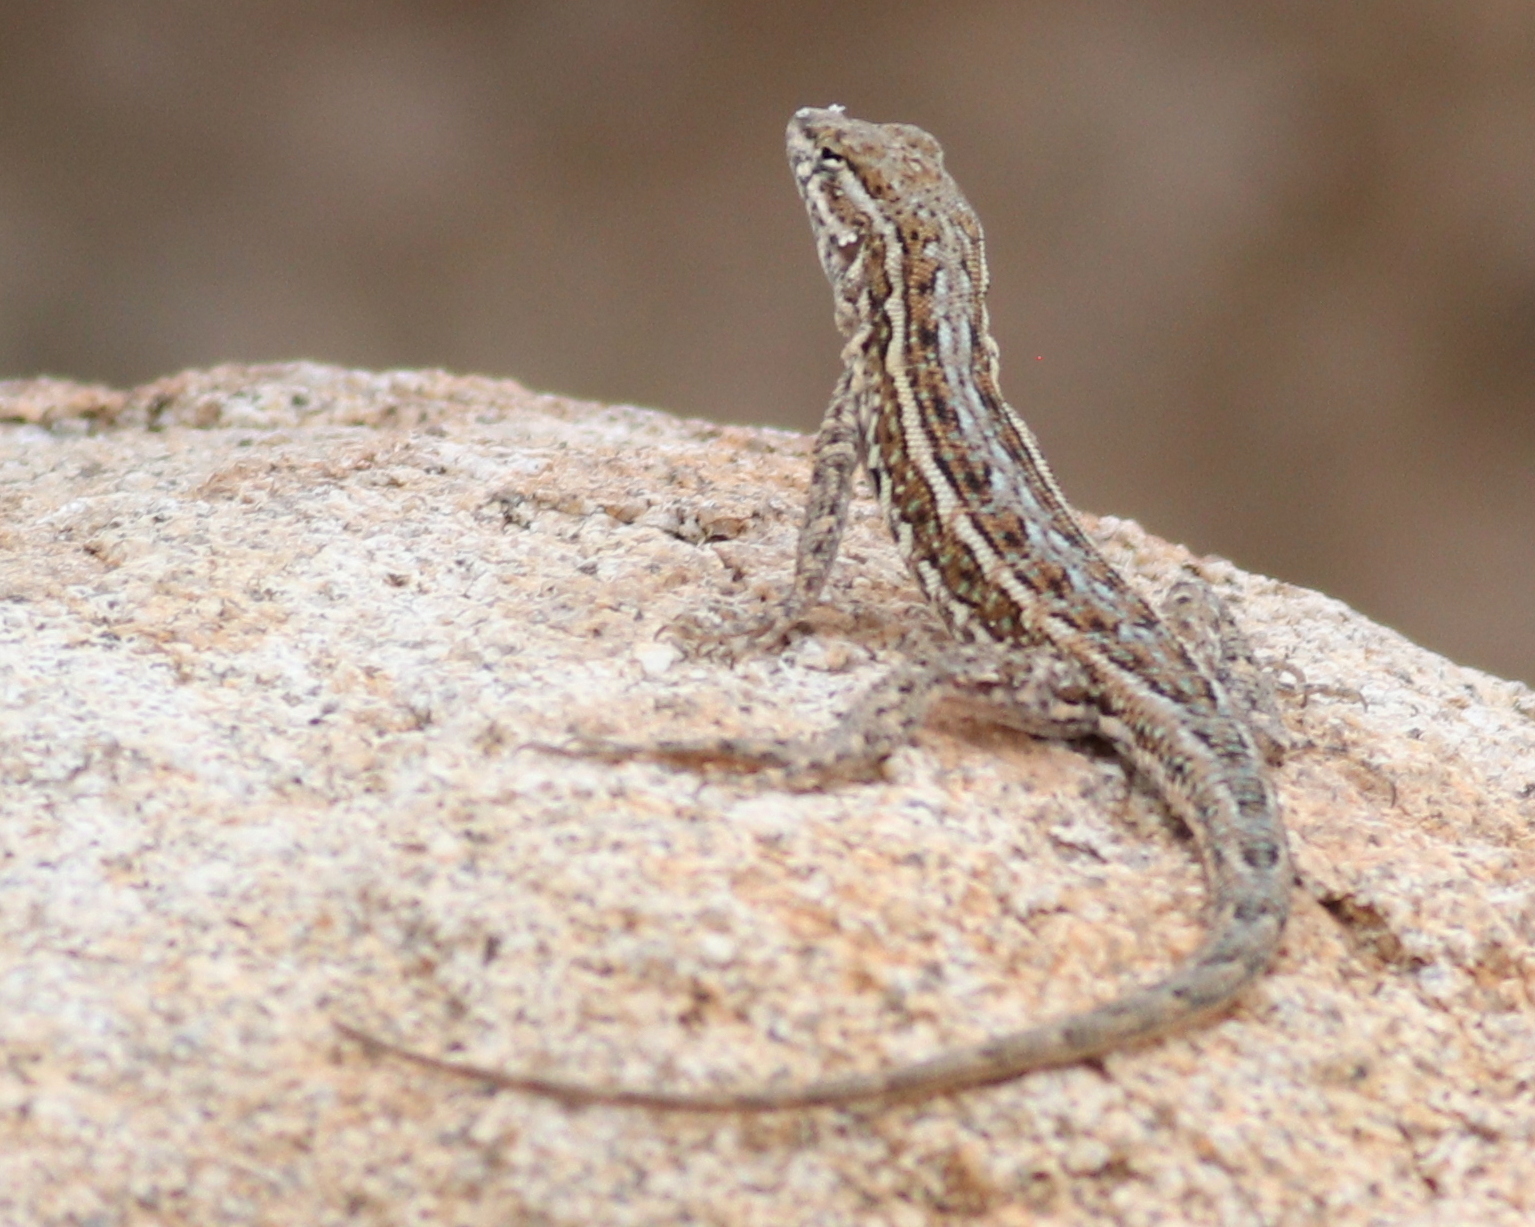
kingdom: Animalia
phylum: Chordata
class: Squamata
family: Phrynosomatidae
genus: Uta
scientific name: Uta stansburiana
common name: Side-blotched lizard
